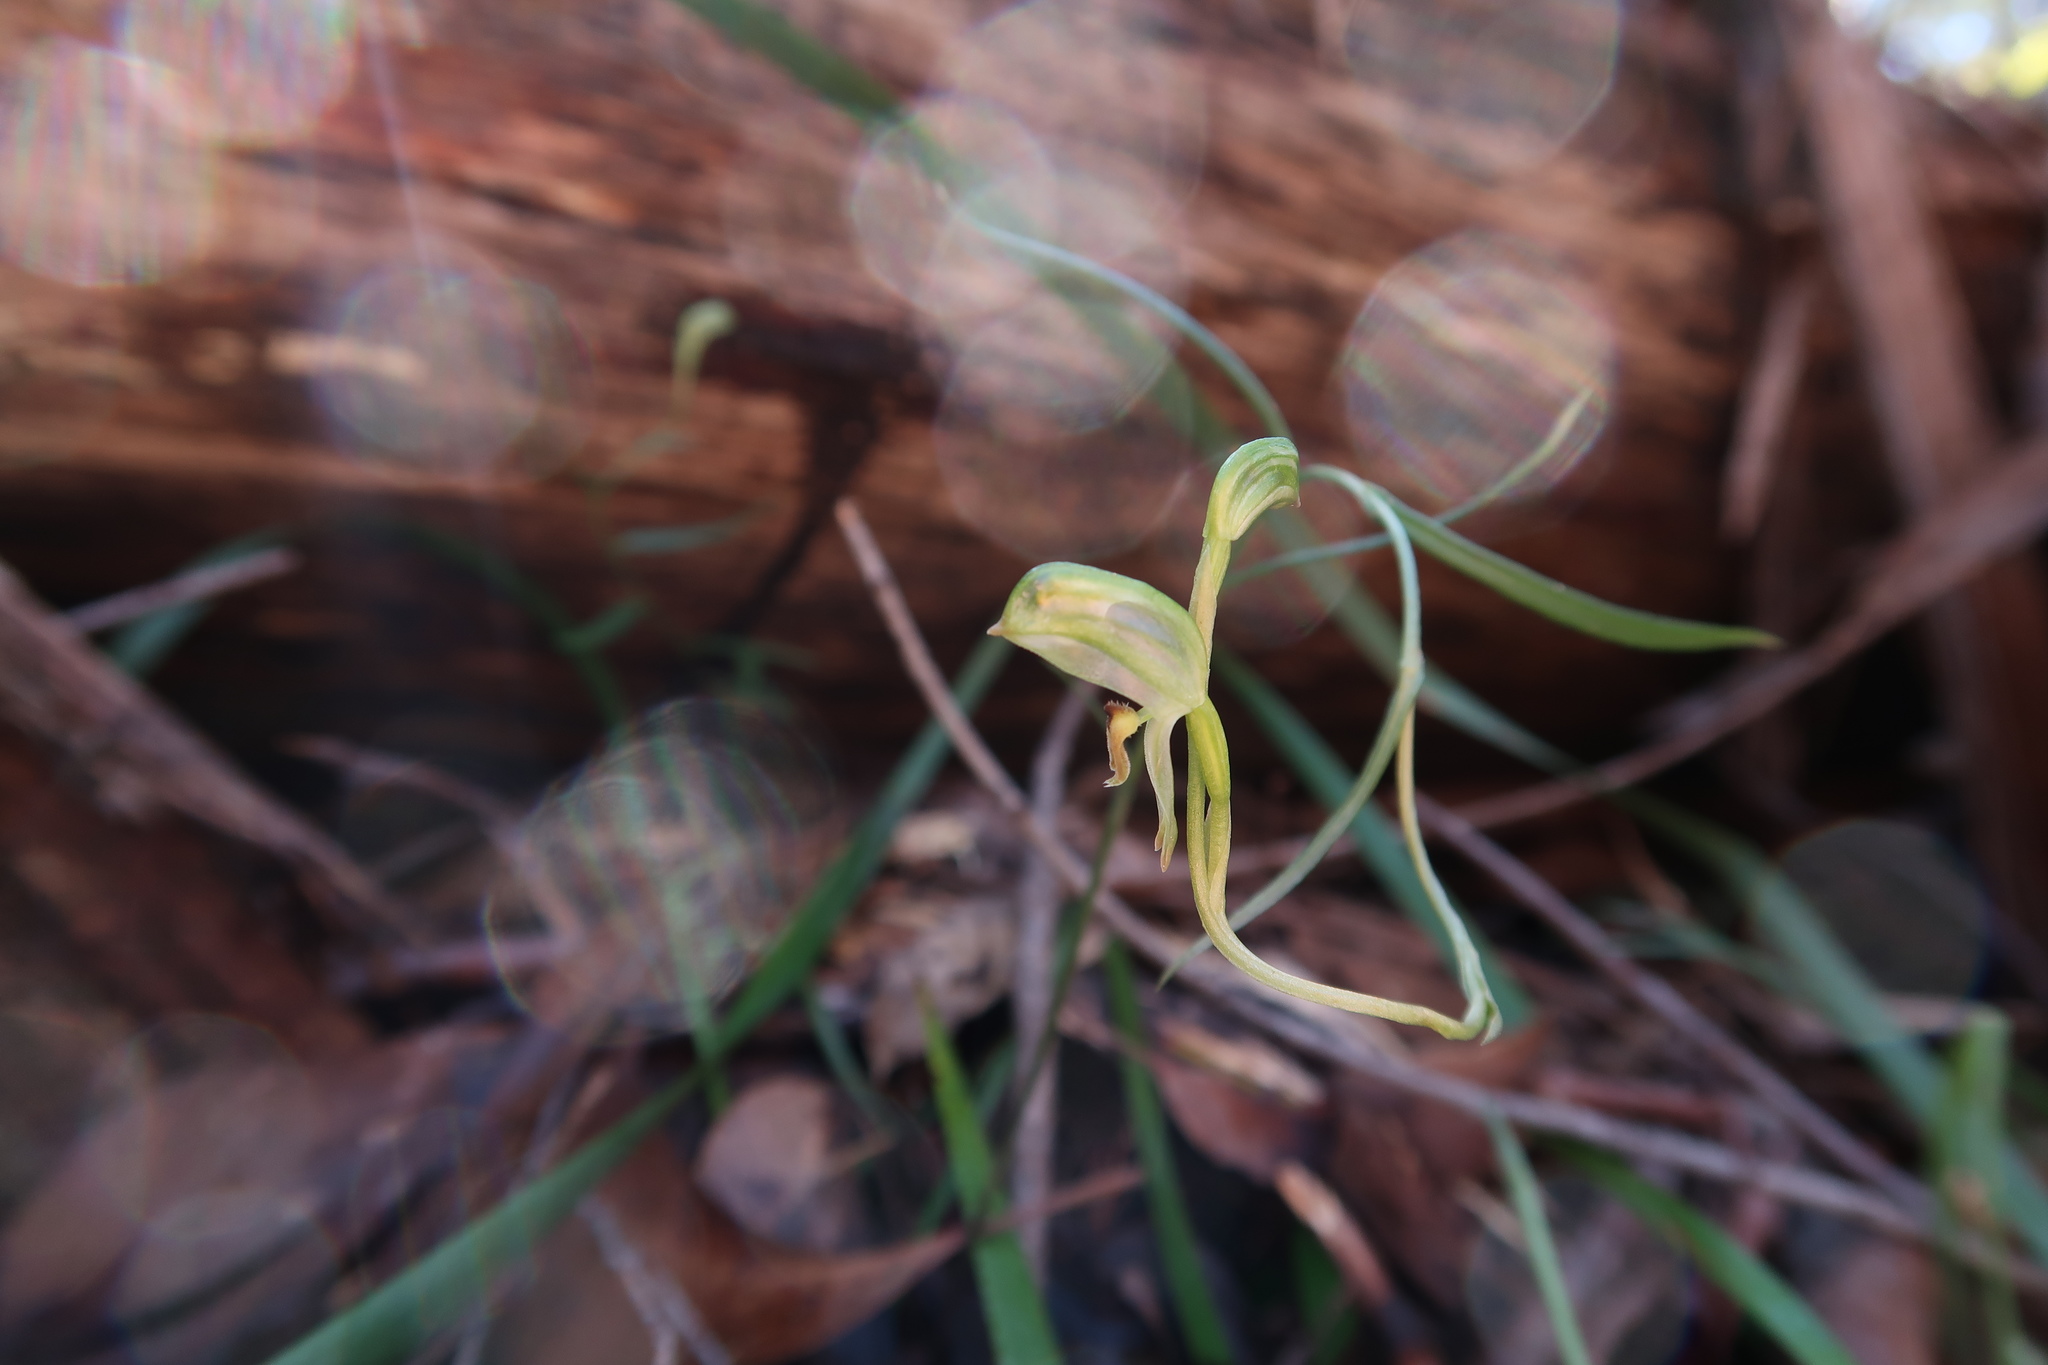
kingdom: Plantae
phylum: Tracheophyta
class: Liliopsida
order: Asparagales
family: Orchidaceae
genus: Pterostylis
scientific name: Pterostylis melagramma
